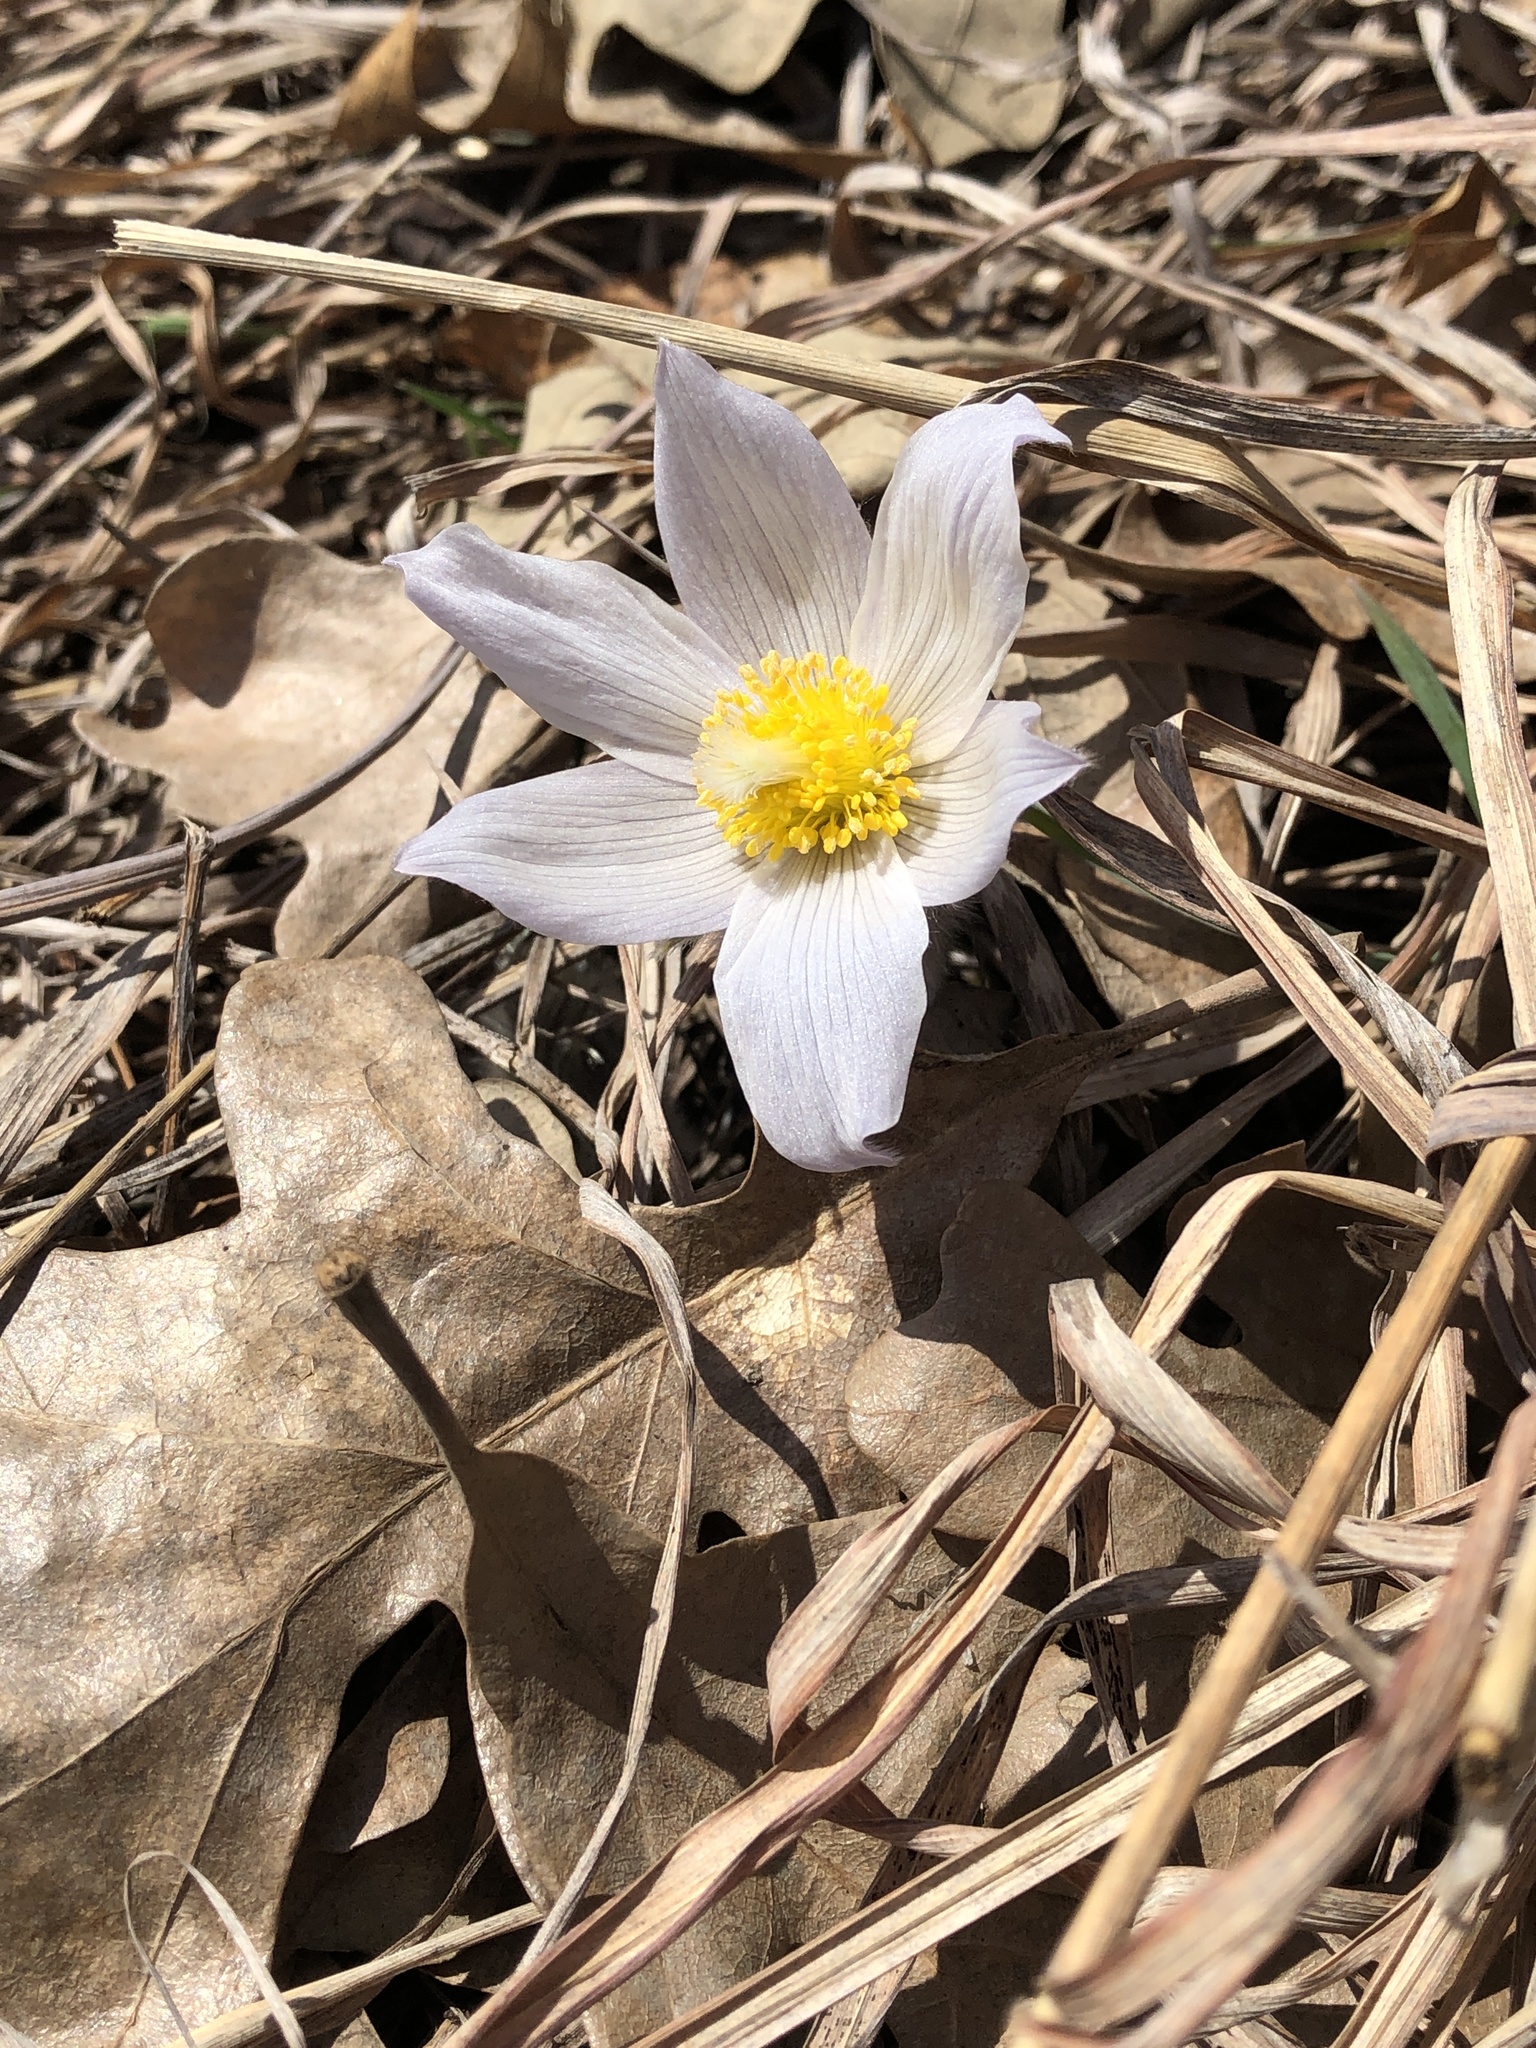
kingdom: Plantae
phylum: Tracheophyta
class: Magnoliopsida
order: Ranunculales
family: Ranunculaceae
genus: Pulsatilla
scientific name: Pulsatilla nuttalliana
